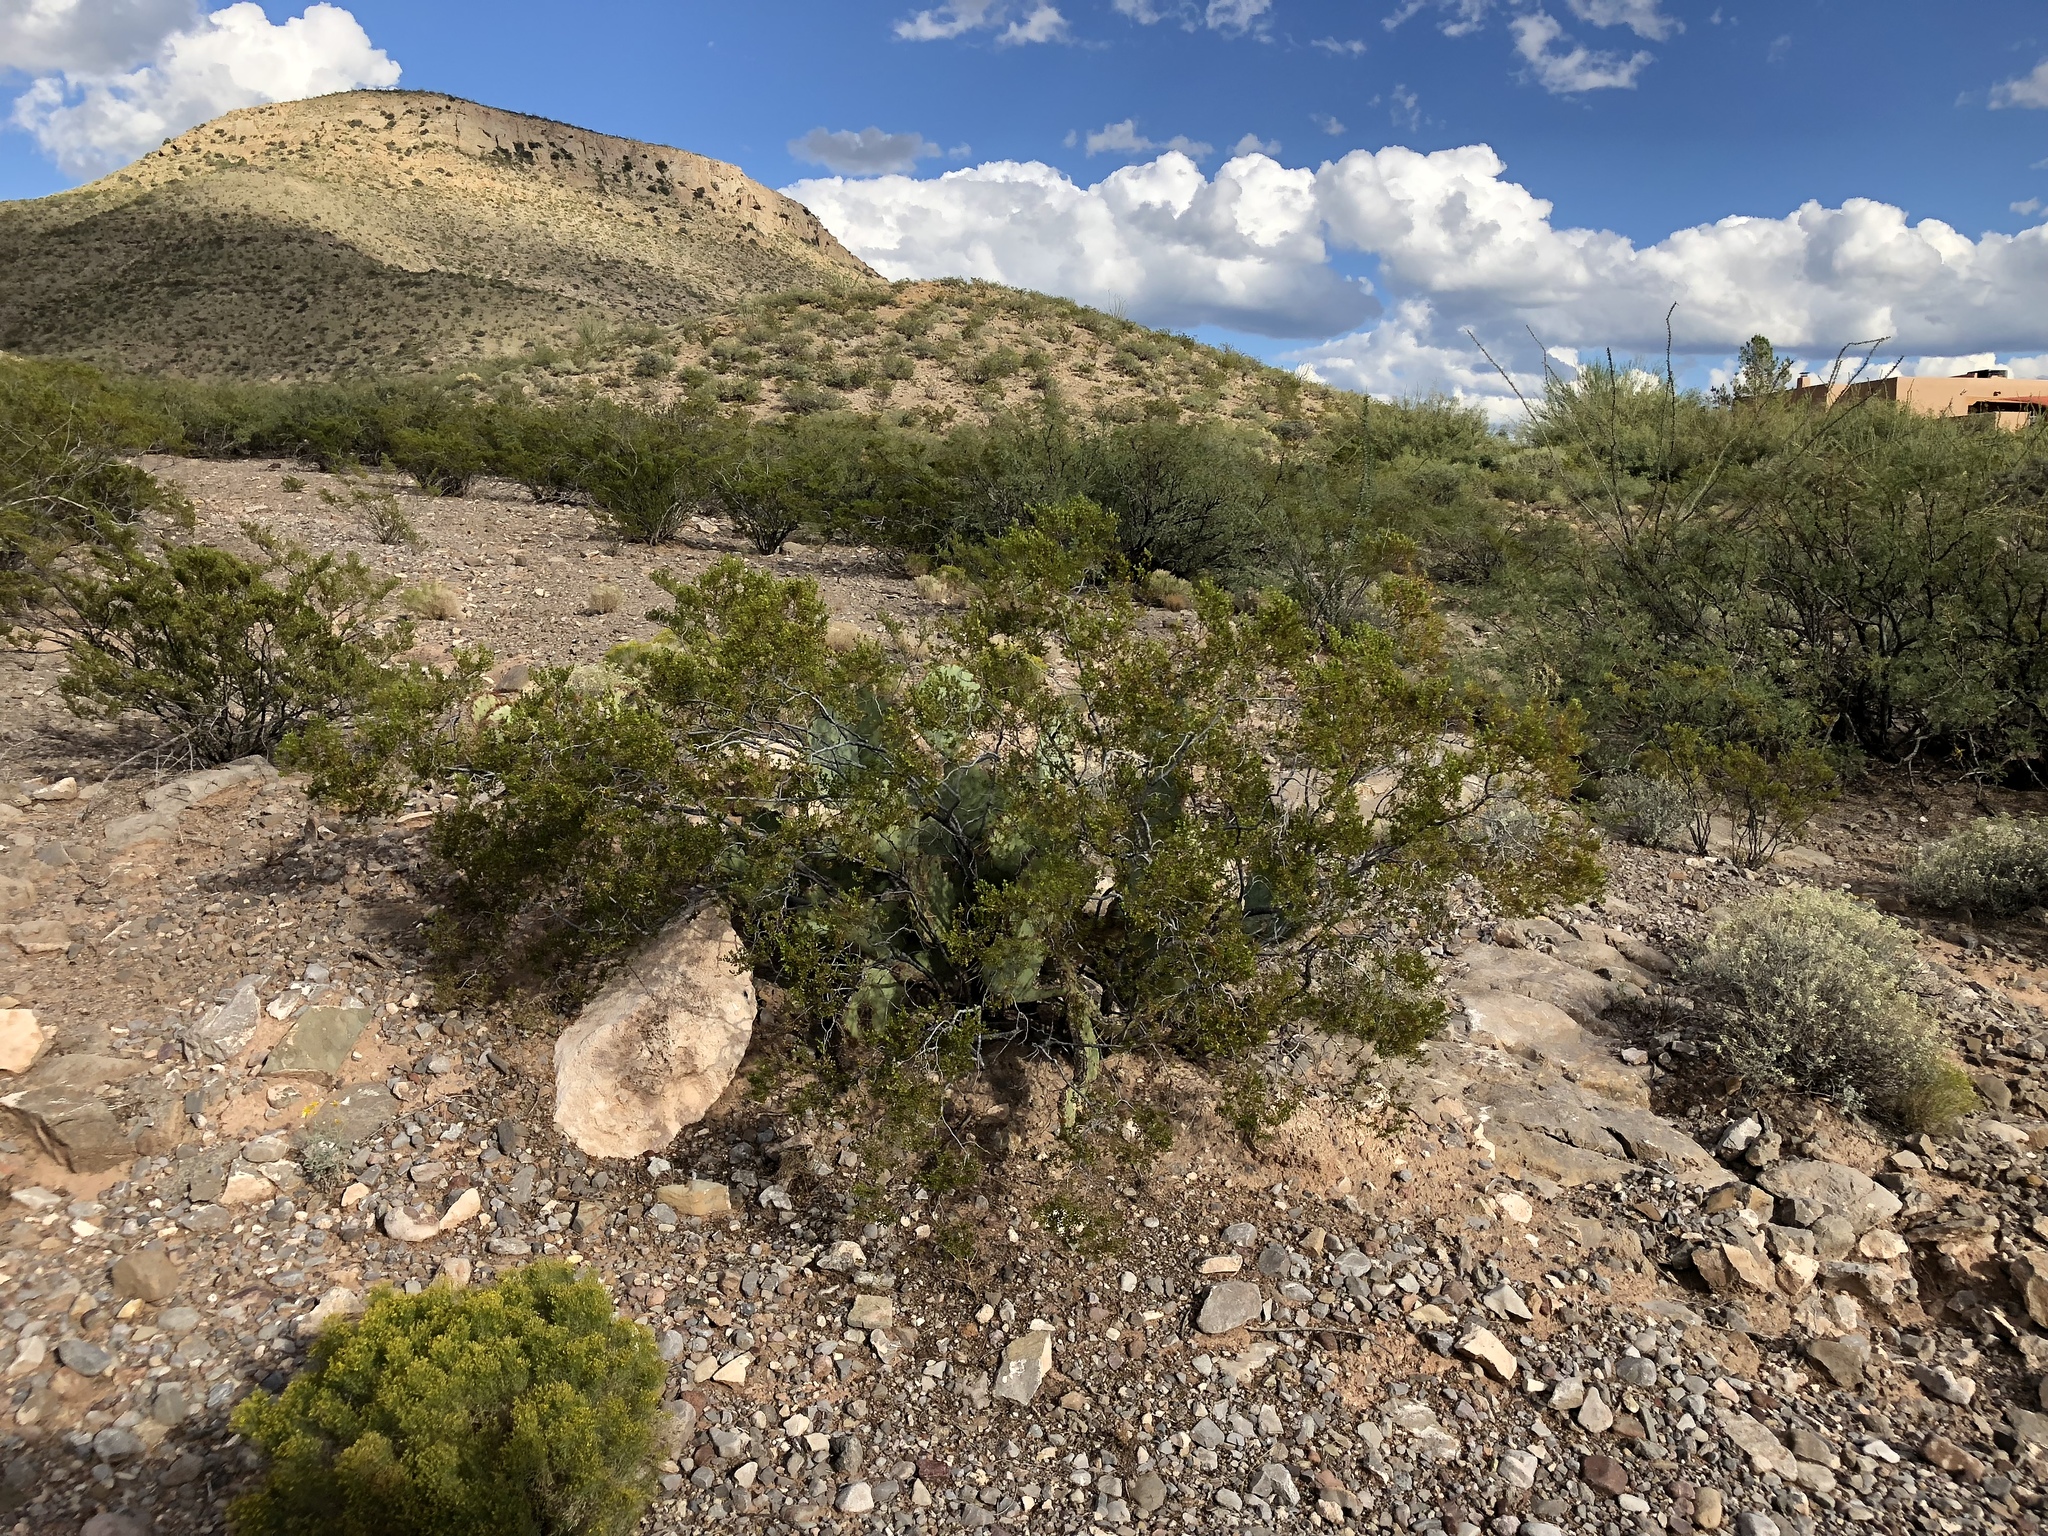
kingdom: Plantae
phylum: Tracheophyta
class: Magnoliopsida
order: Zygophyllales
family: Zygophyllaceae
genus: Larrea
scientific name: Larrea tridentata
